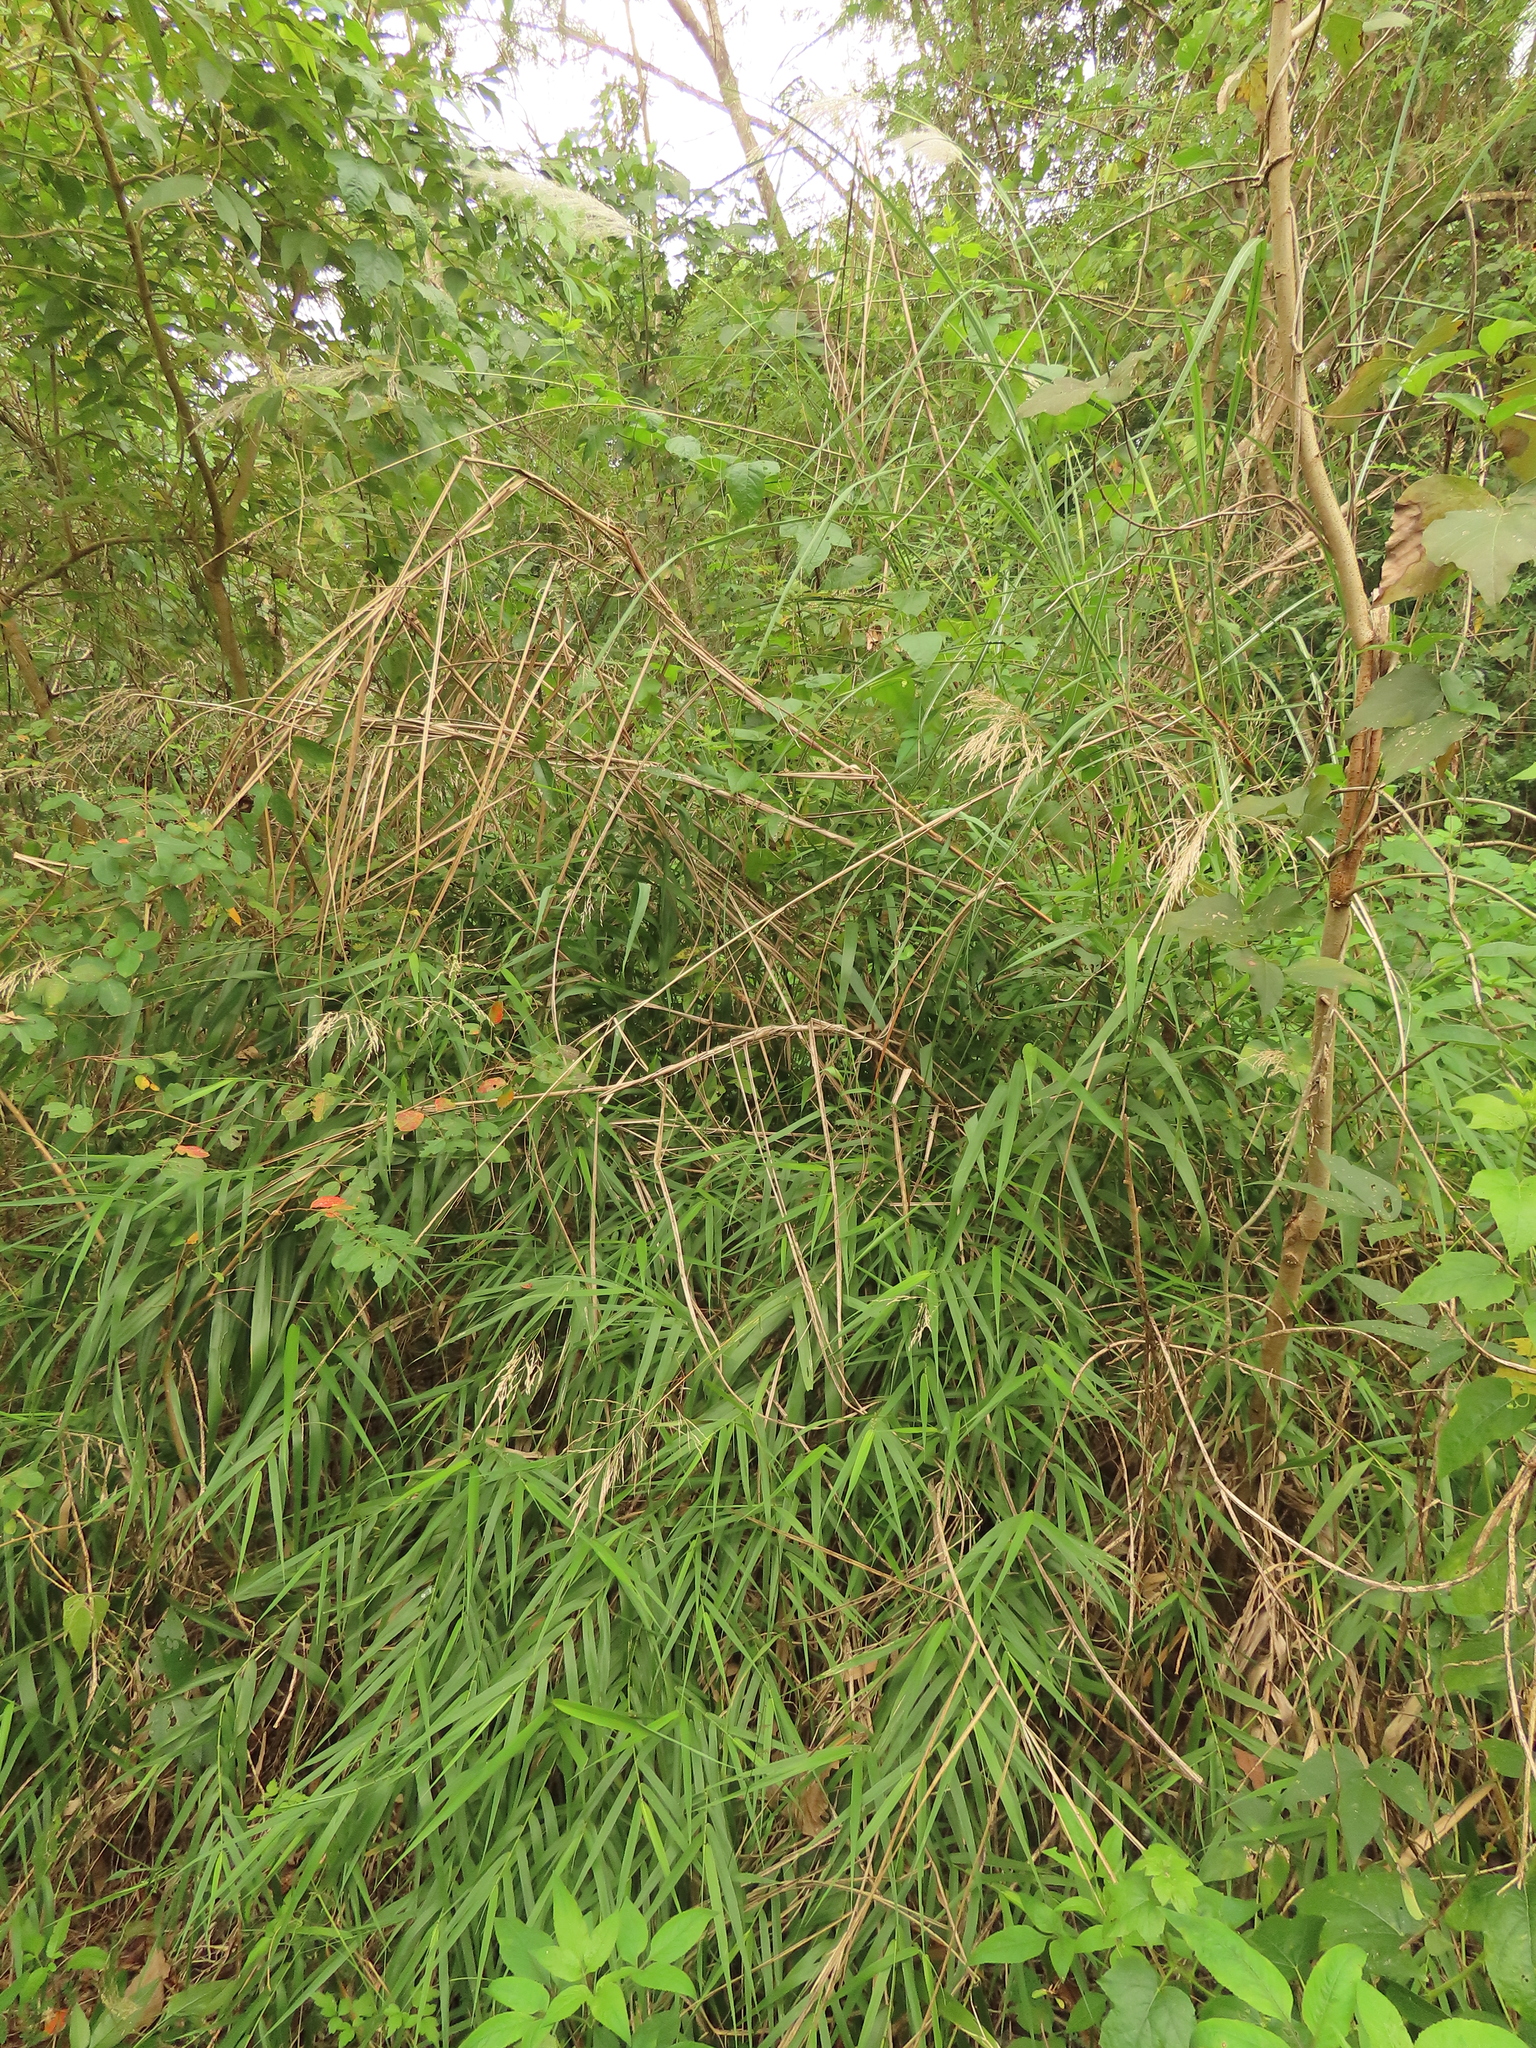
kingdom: Plantae
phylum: Tracheophyta
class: Liliopsida
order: Poales
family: Poaceae
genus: Arundo
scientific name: Arundo formosana
